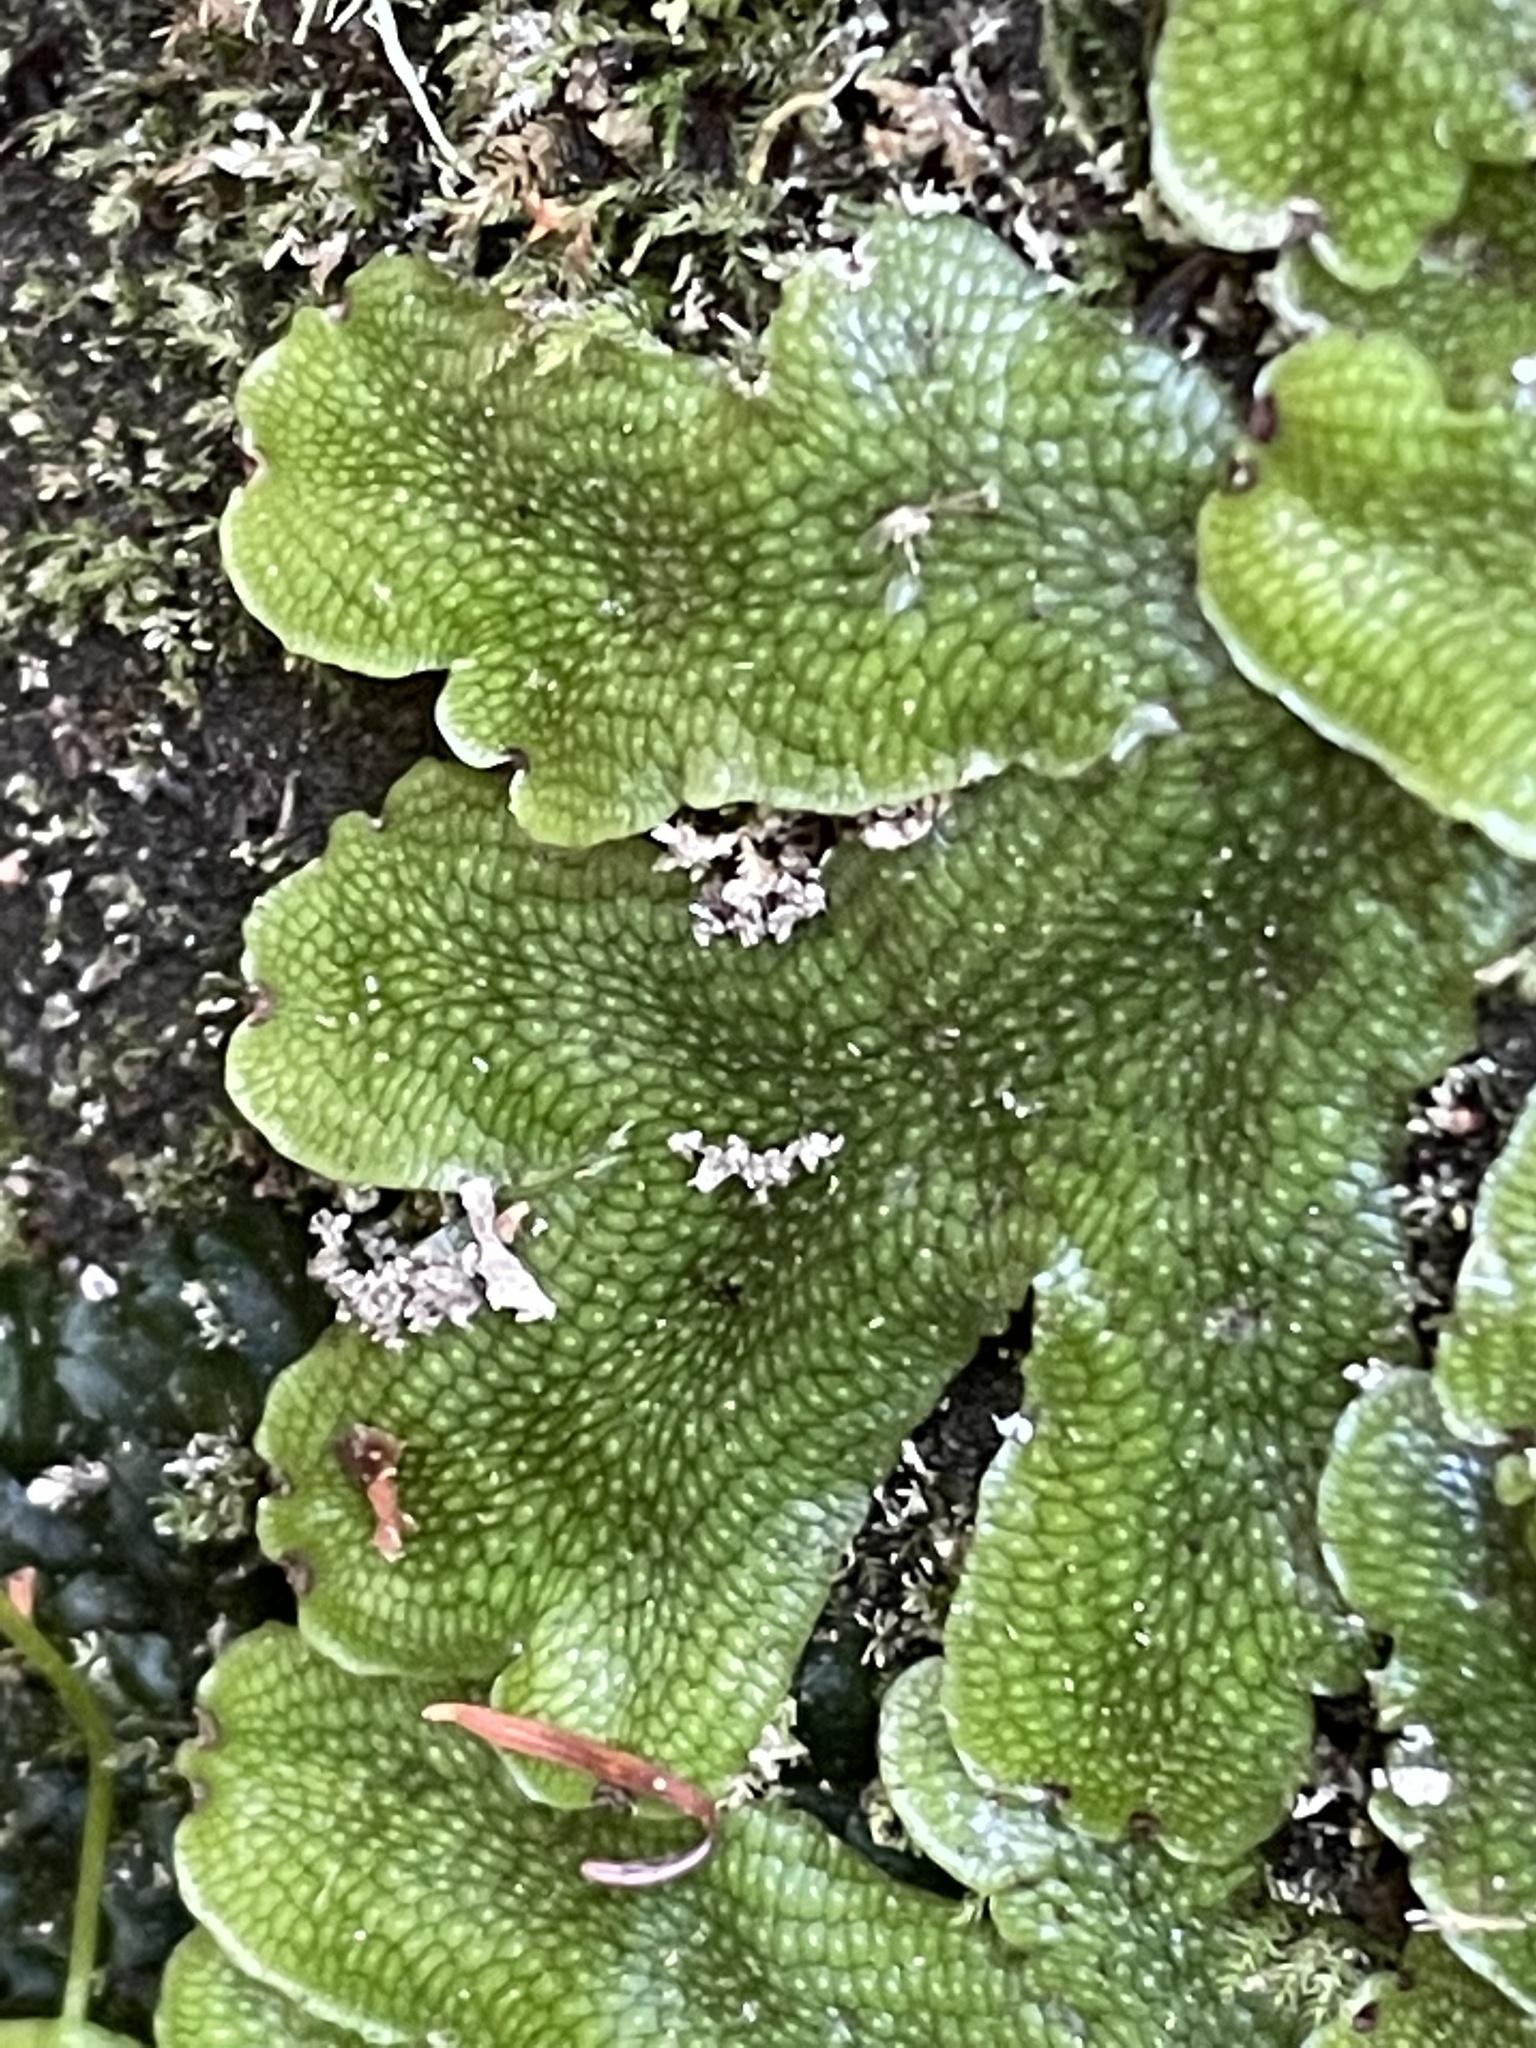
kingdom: Plantae
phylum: Marchantiophyta
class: Marchantiopsida
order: Marchantiales
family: Conocephalaceae
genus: Conocephalum
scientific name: Conocephalum salebrosum
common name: Cat-tongue liverwort
